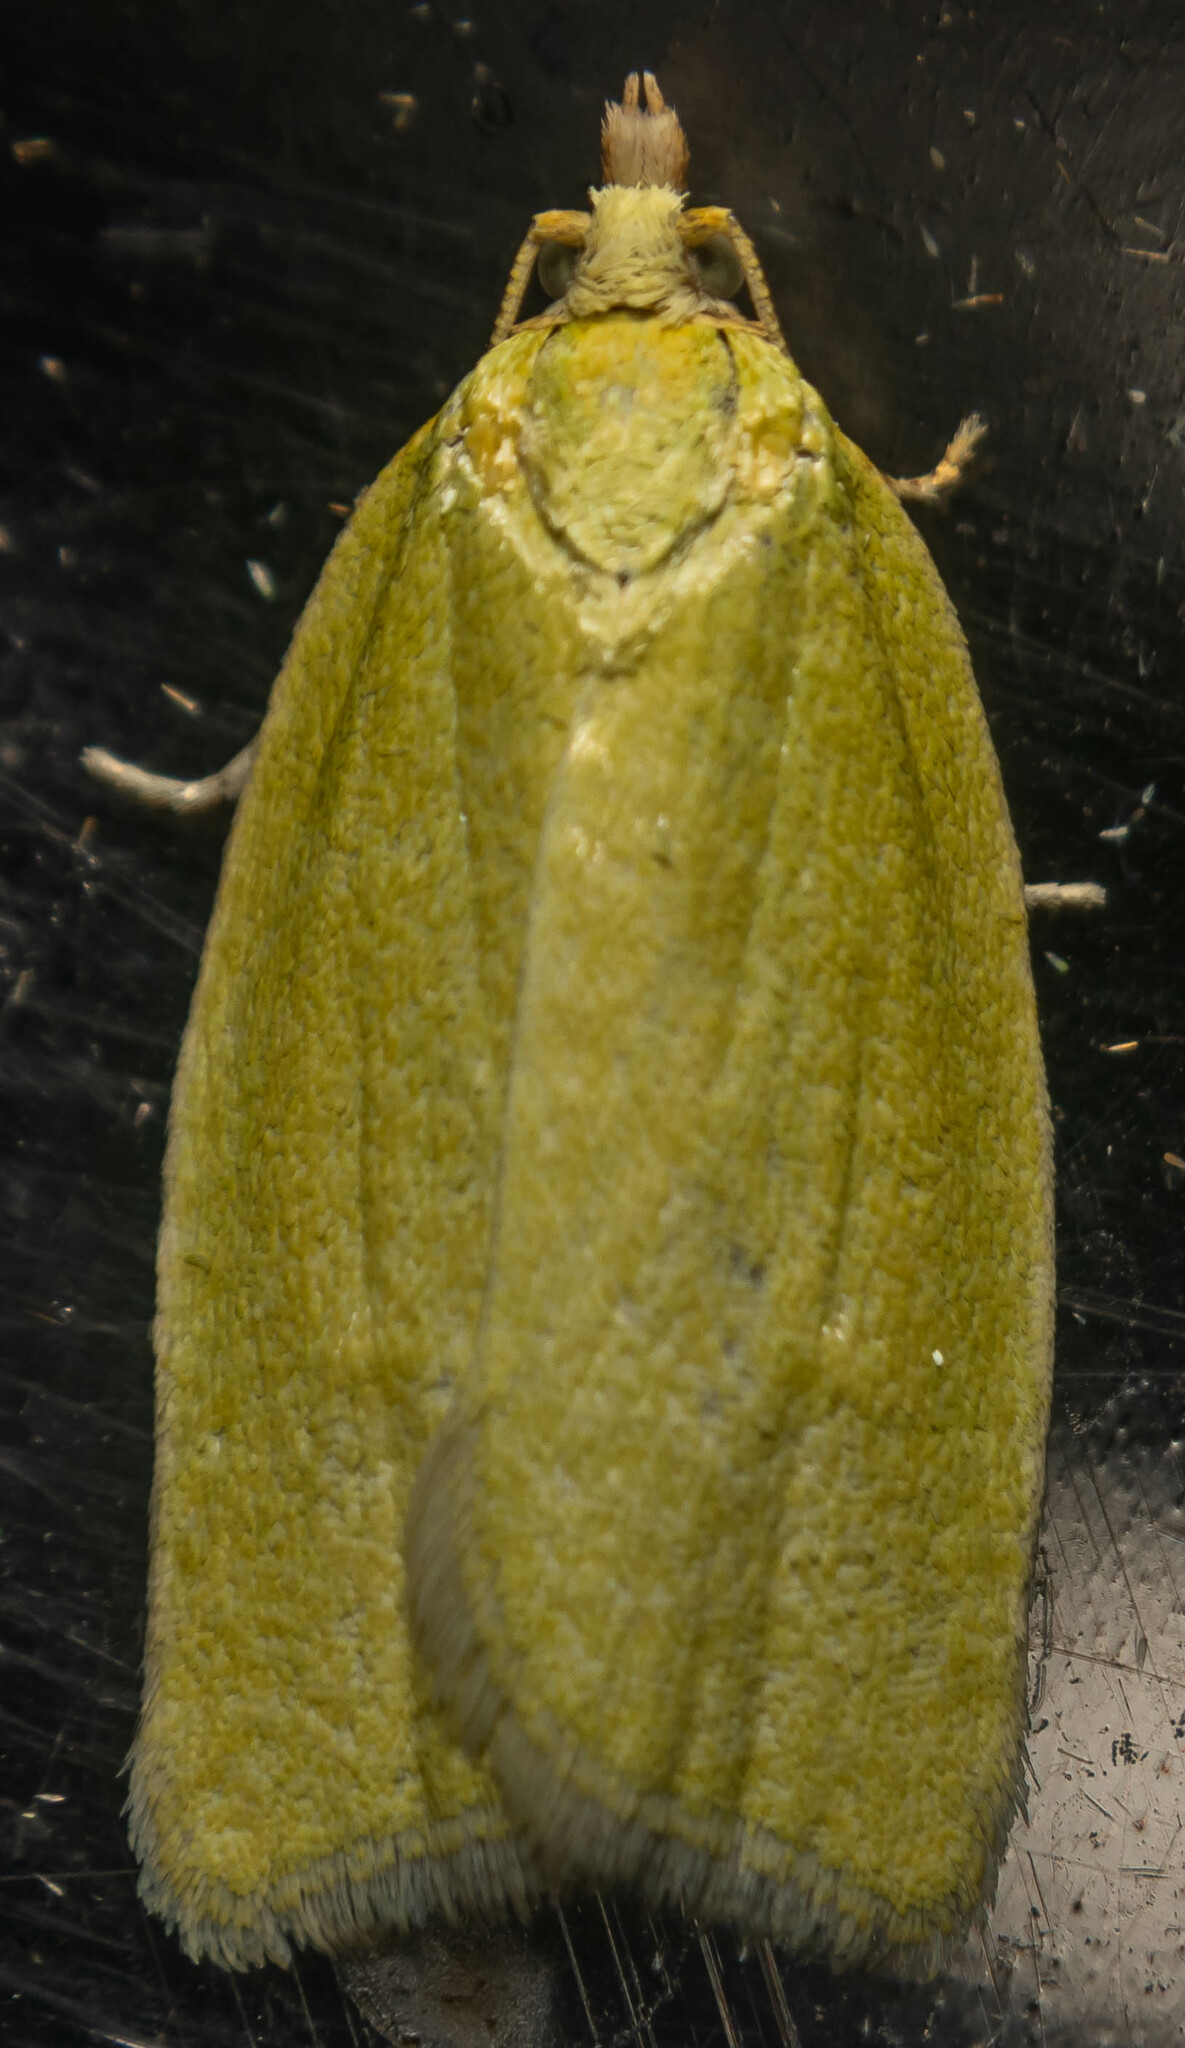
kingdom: Animalia
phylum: Arthropoda
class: Insecta
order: Lepidoptera
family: Tortricidae
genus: Tortrix
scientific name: Tortrix viridana
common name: Green oak tortrix
